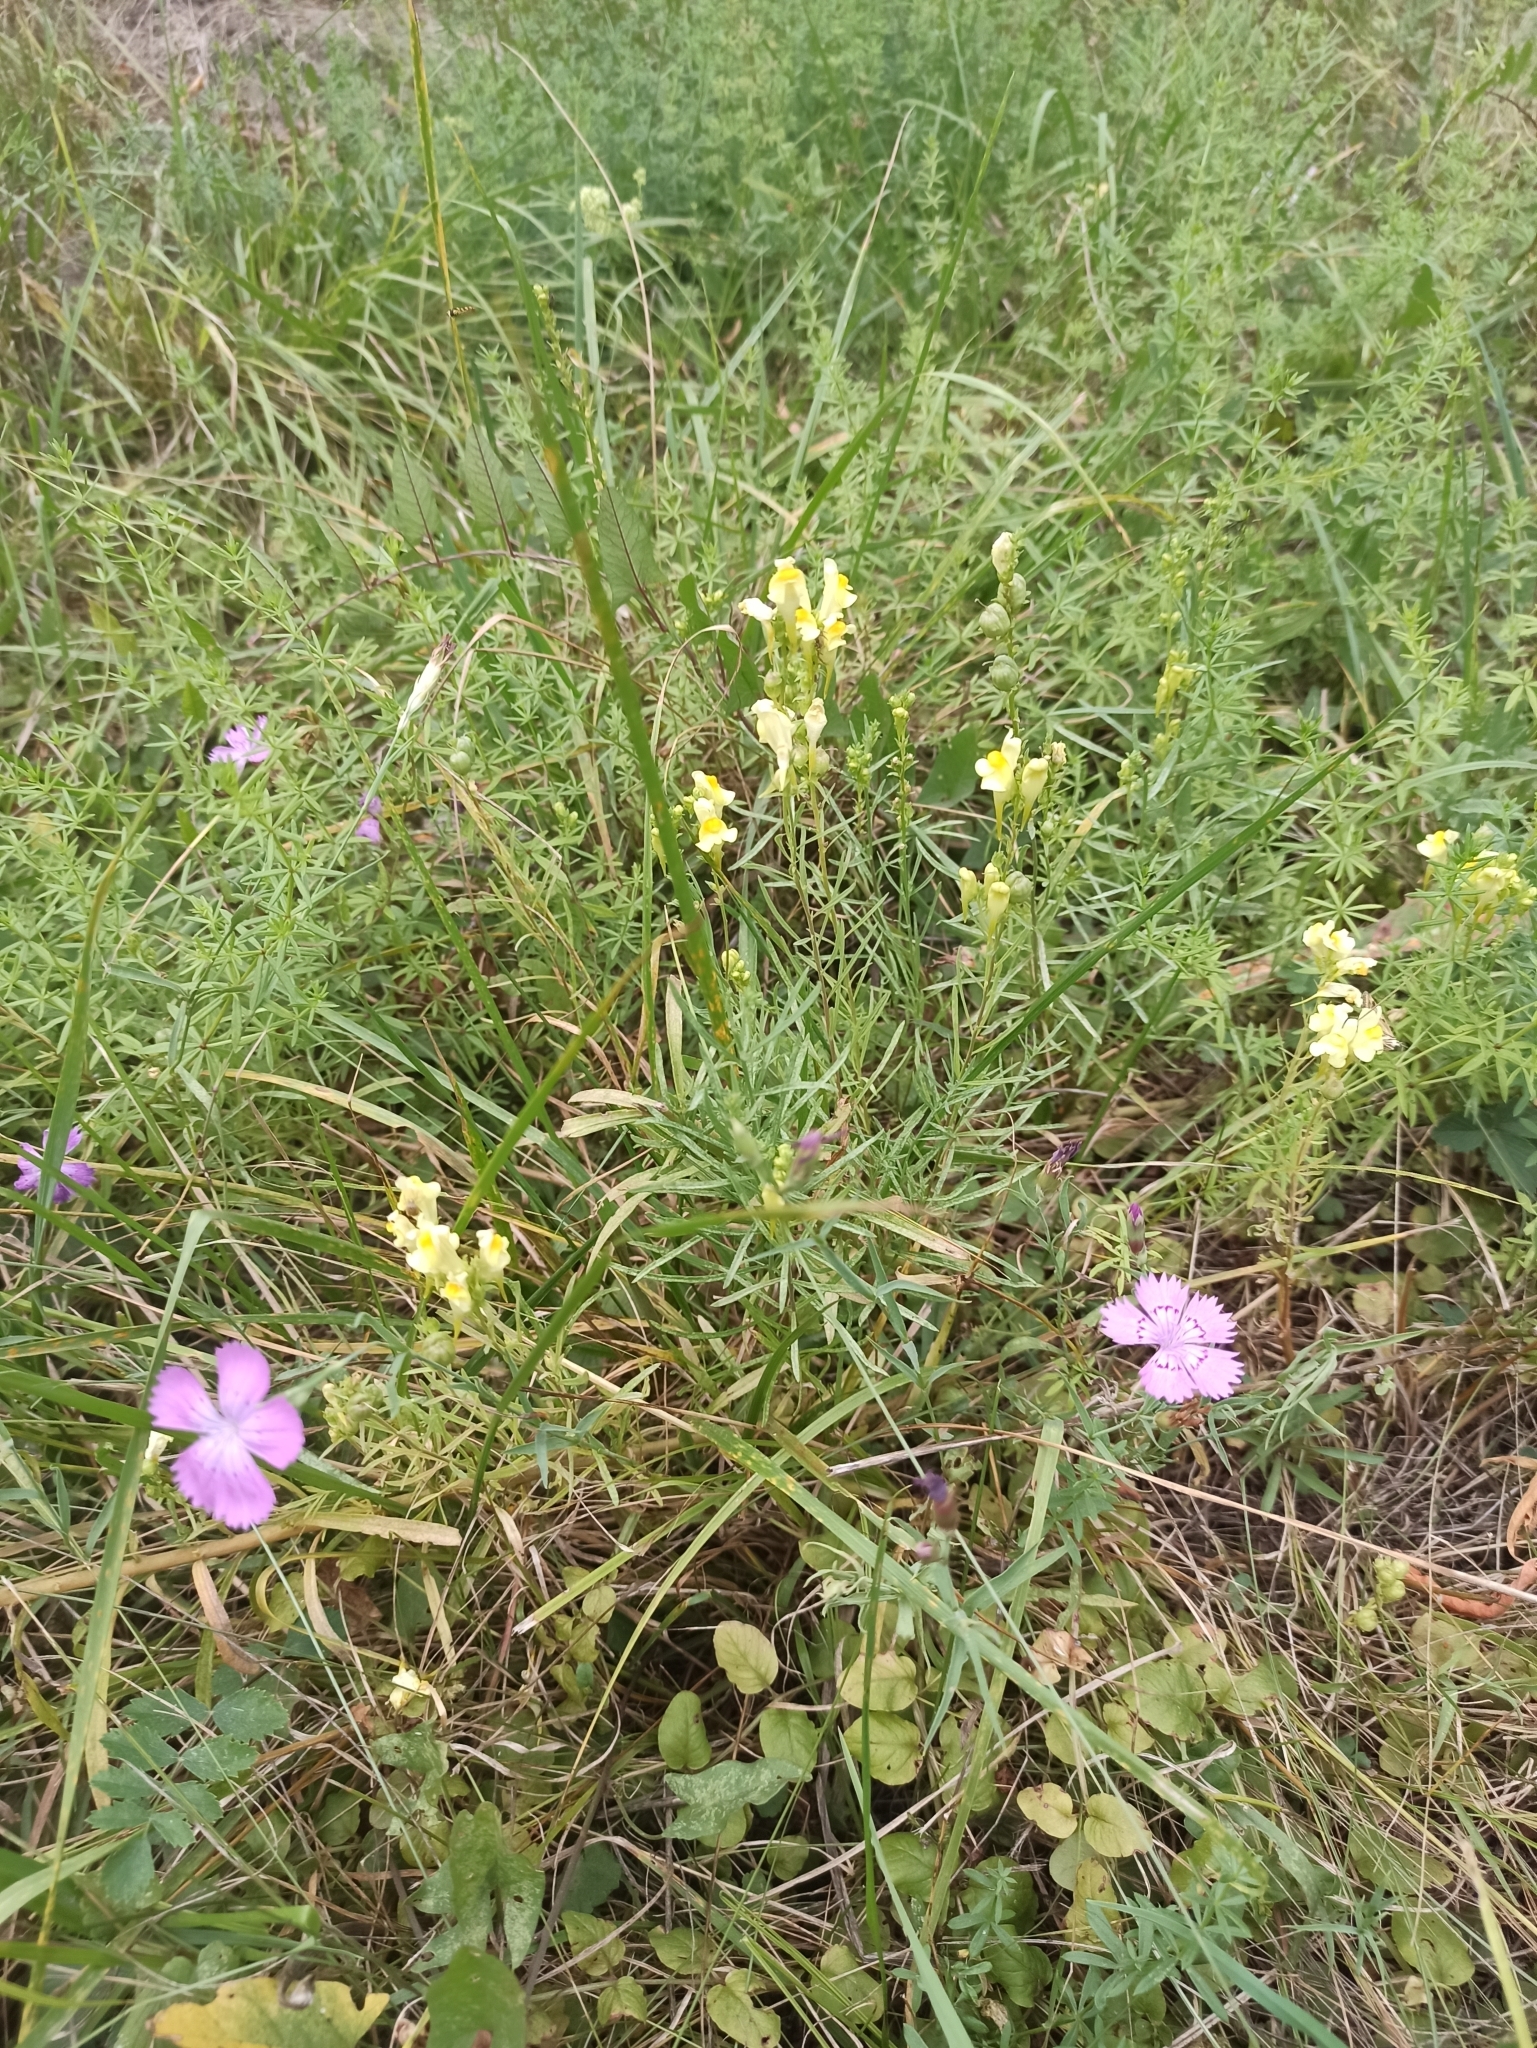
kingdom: Plantae
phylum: Tracheophyta
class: Magnoliopsida
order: Lamiales
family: Plantaginaceae
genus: Linaria
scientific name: Linaria vulgaris
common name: Butter and eggs
